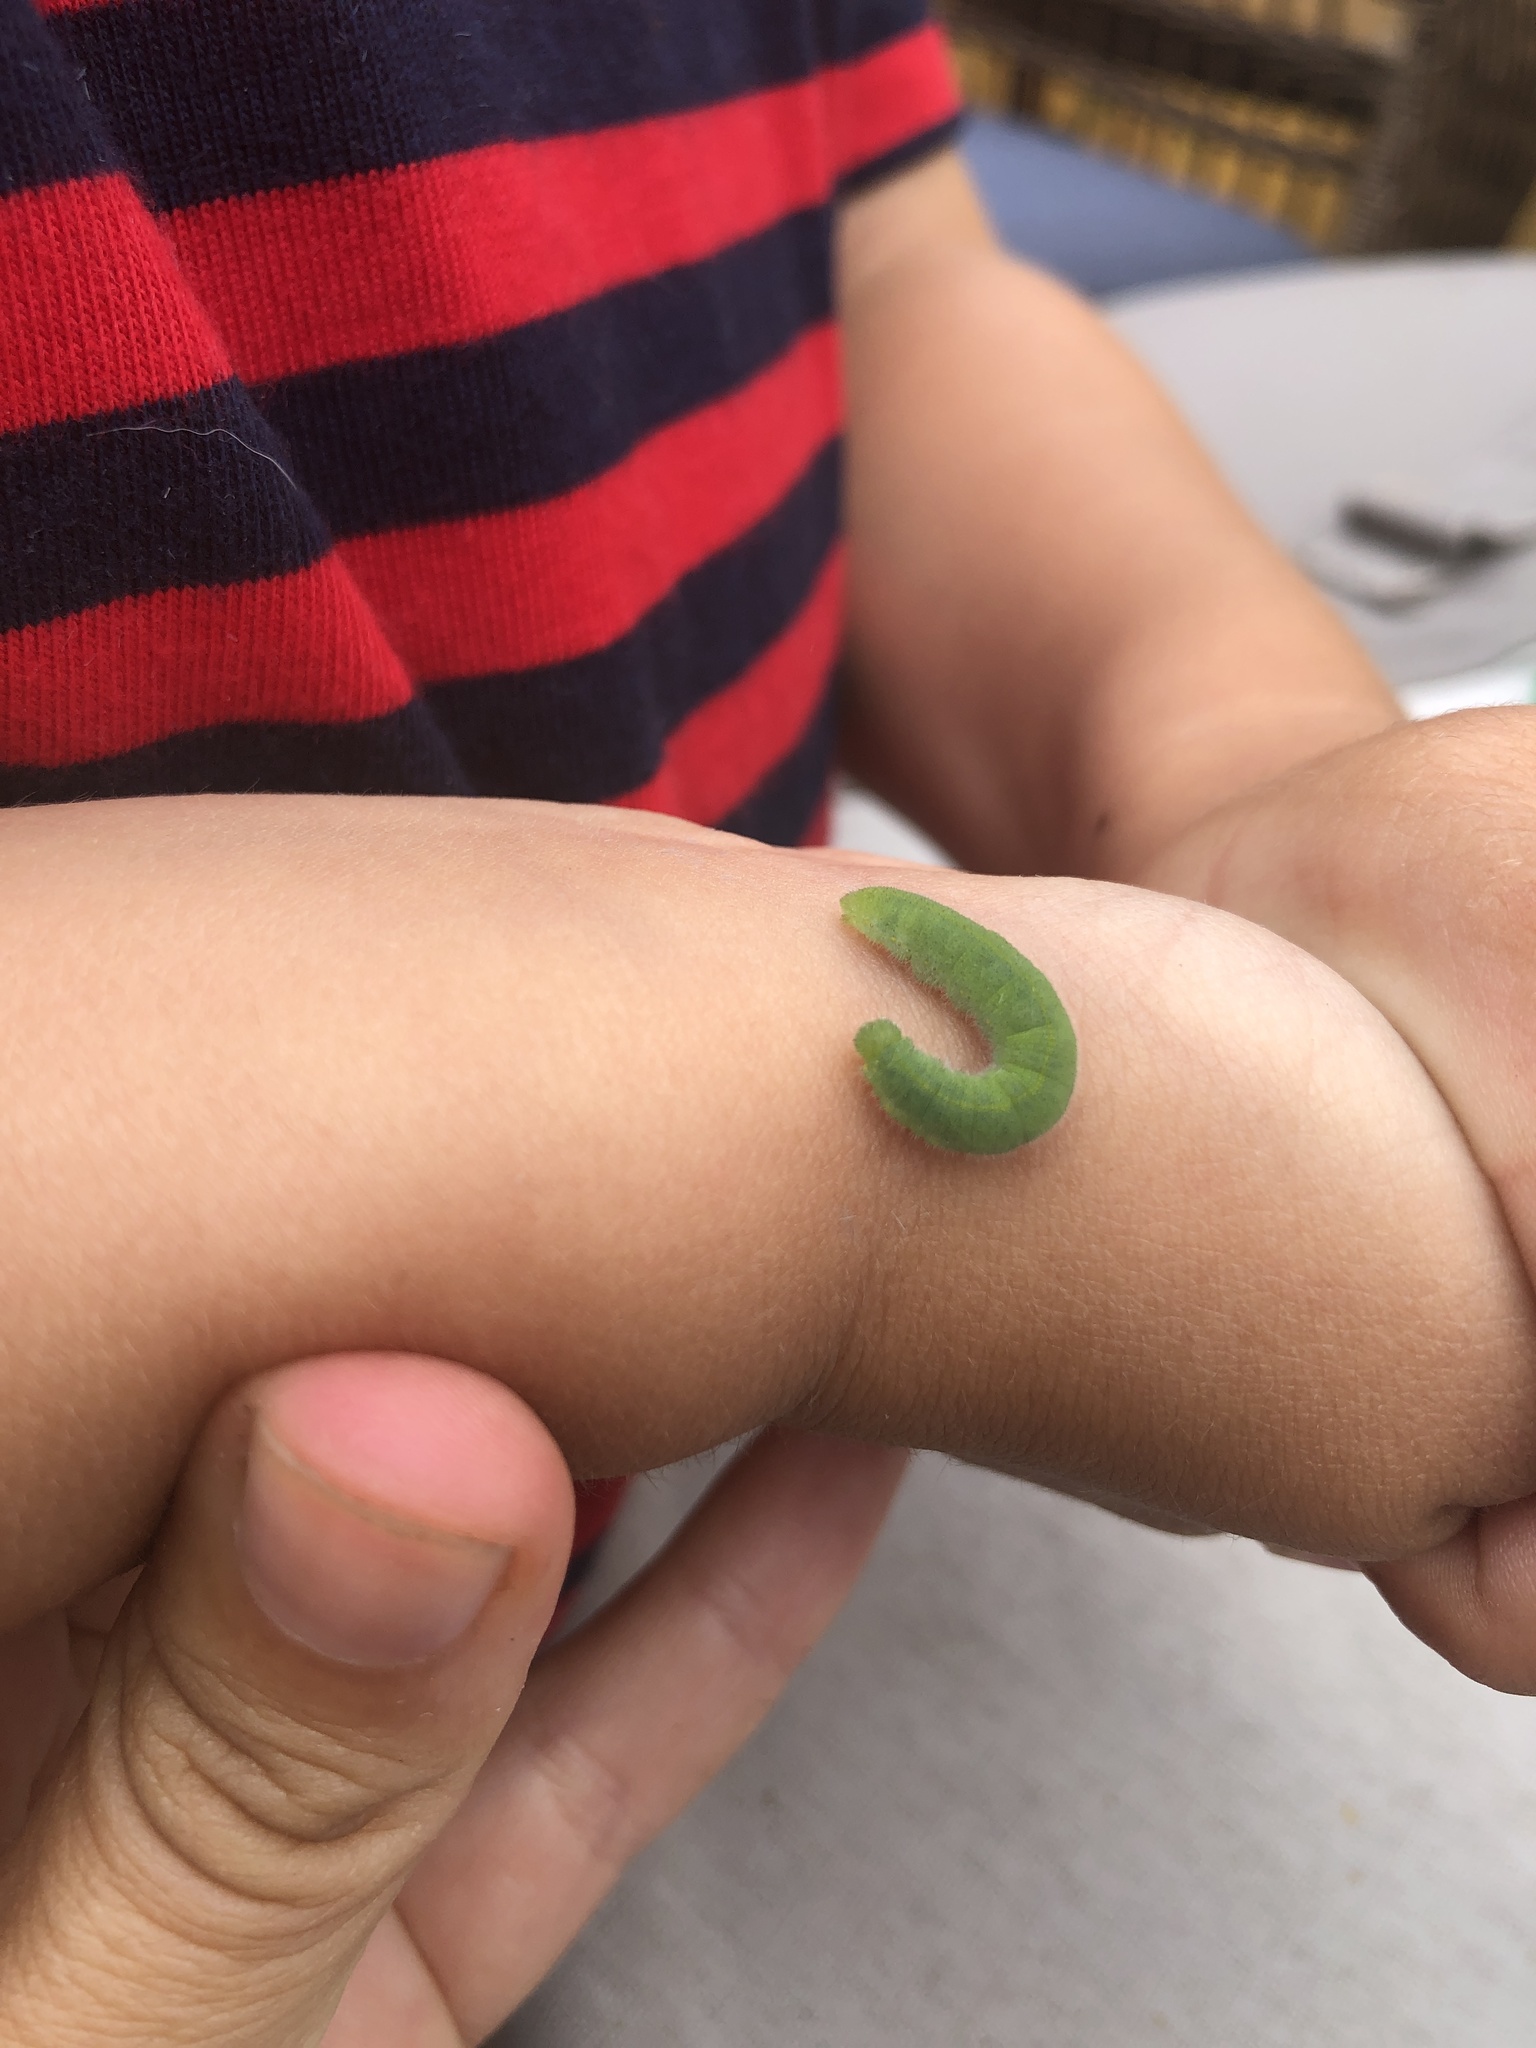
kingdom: Animalia
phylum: Arthropoda
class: Insecta
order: Lepidoptera
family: Pieridae
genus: Pieris
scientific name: Pieris rapae
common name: Small white
